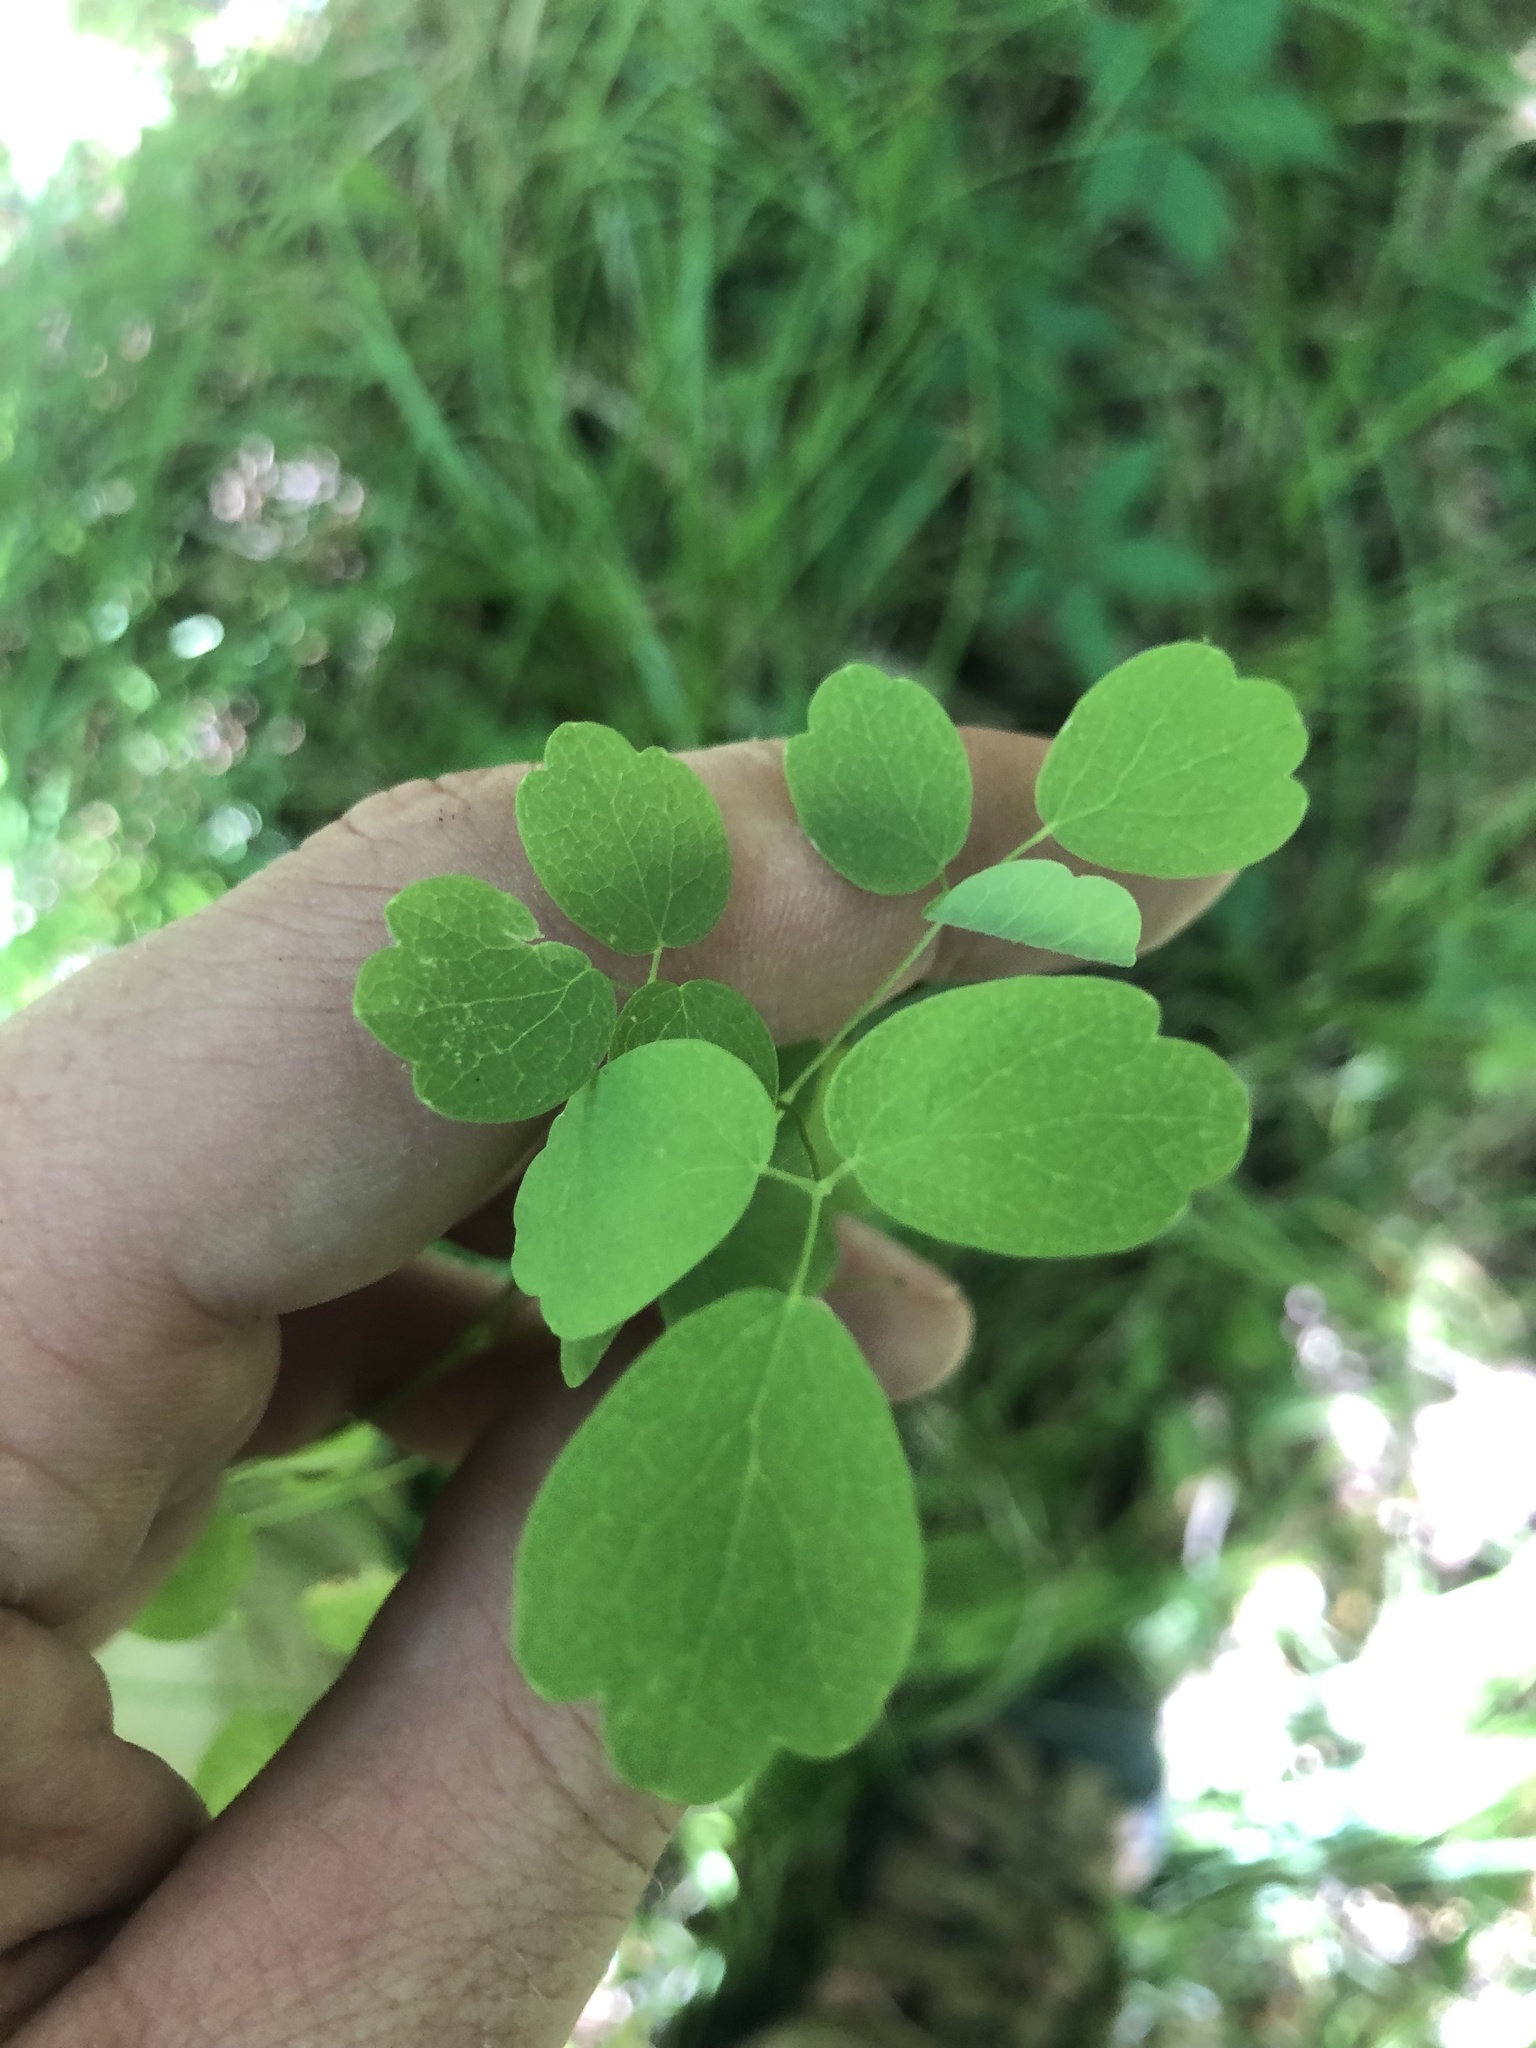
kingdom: Plantae
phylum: Tracheophyta
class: Magnoliopsida
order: Ranunculales
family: Ranunculaceae
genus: Thalictrum
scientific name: Thalictrum dasycarpum
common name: Purple meadow-rue
